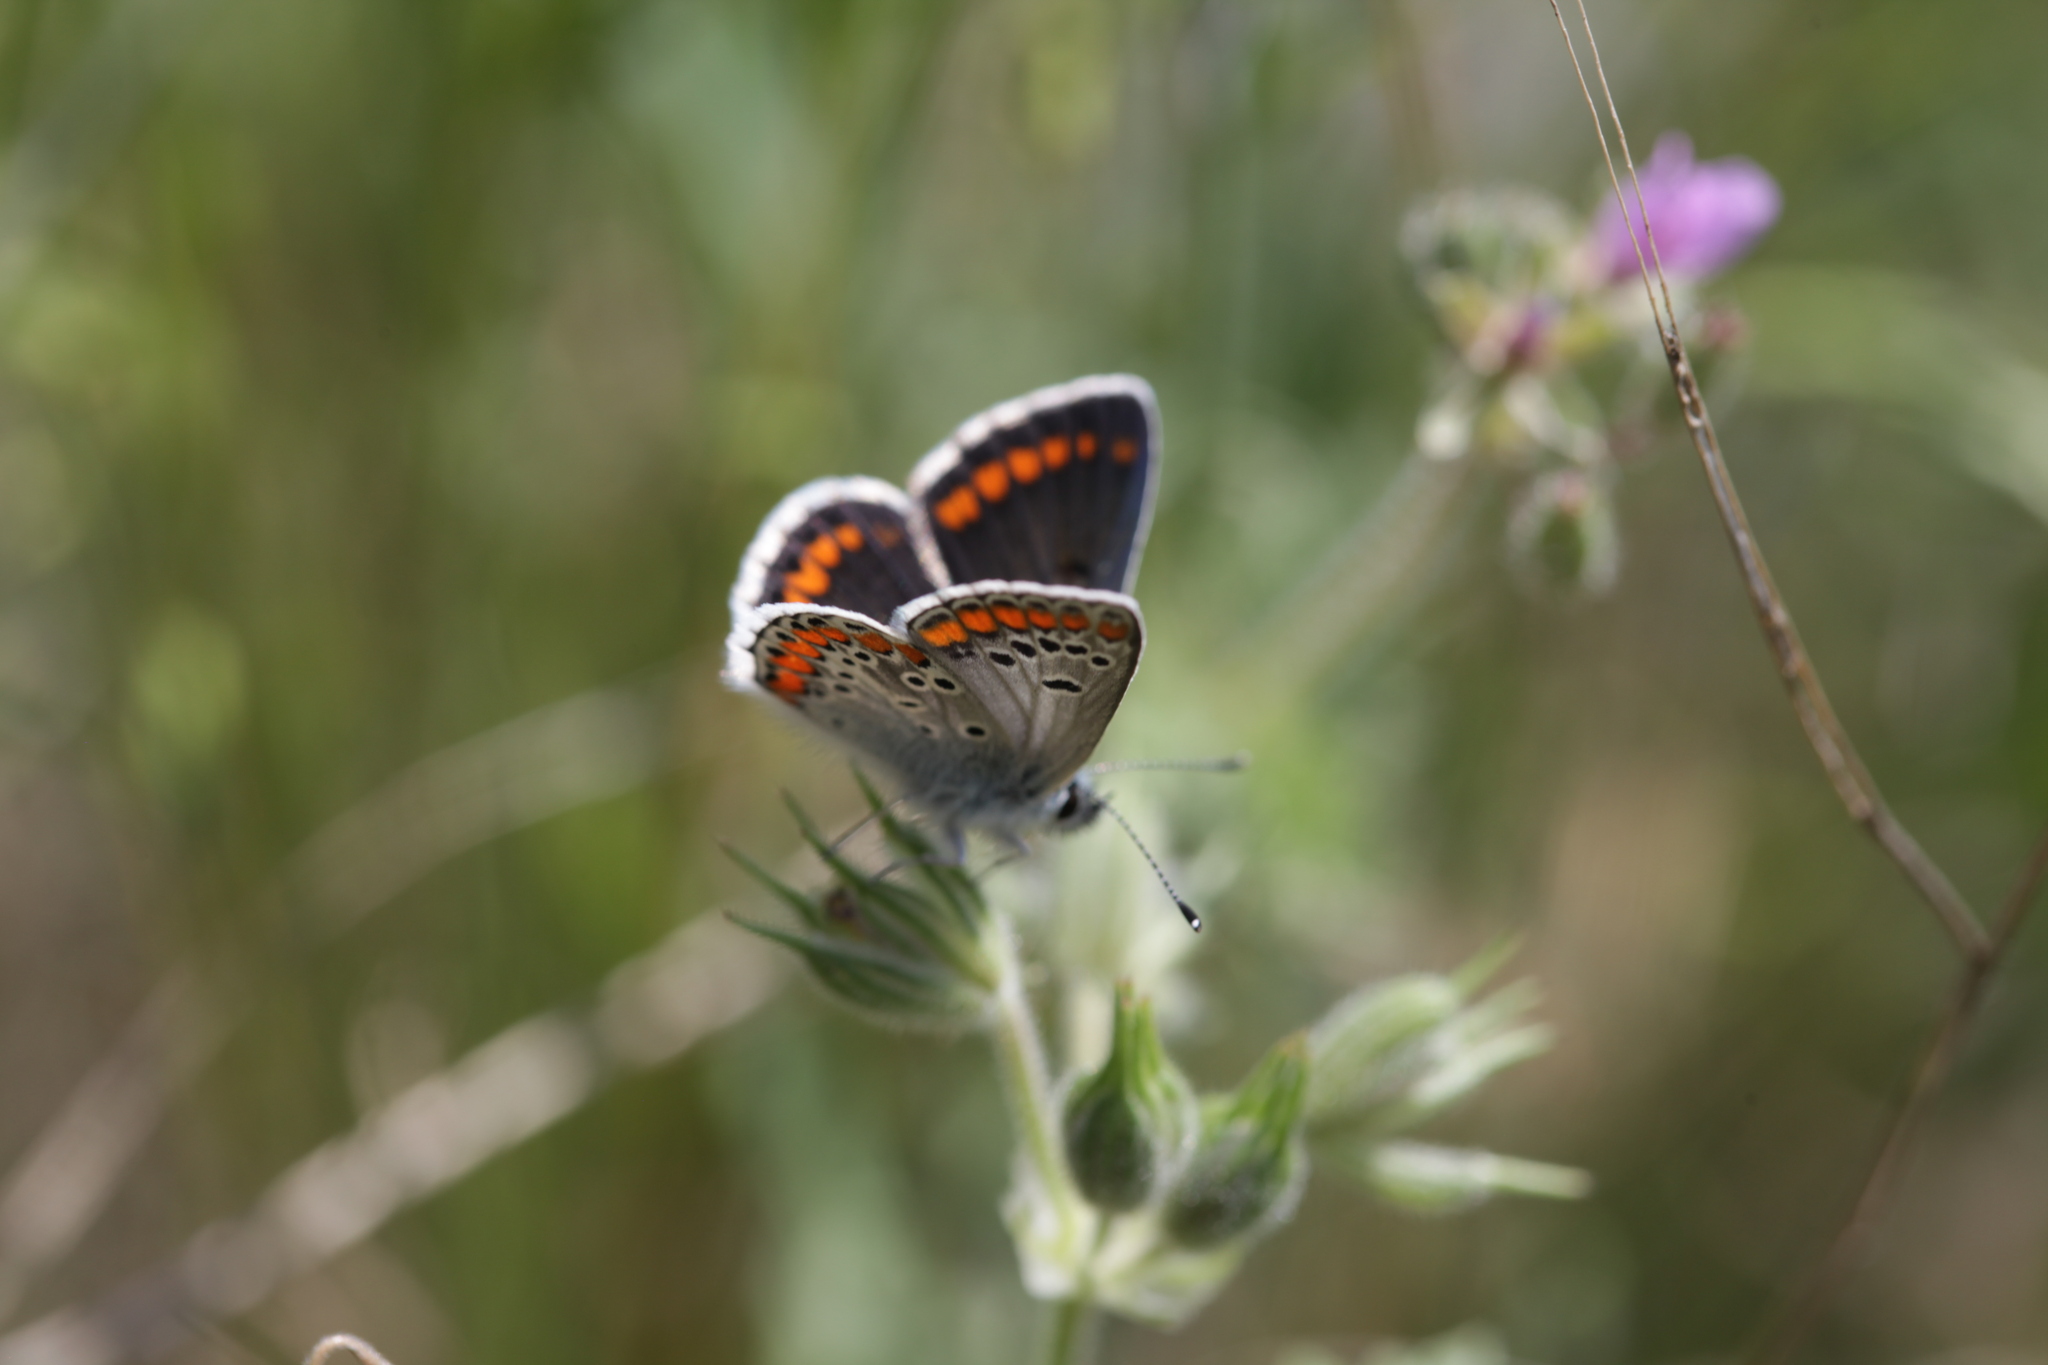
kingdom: Animalia
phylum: Arthropoda
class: Insecta
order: Lepidoptera
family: Lycaenidae
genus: Aricia
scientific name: Aricia agestis
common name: Brown argus
